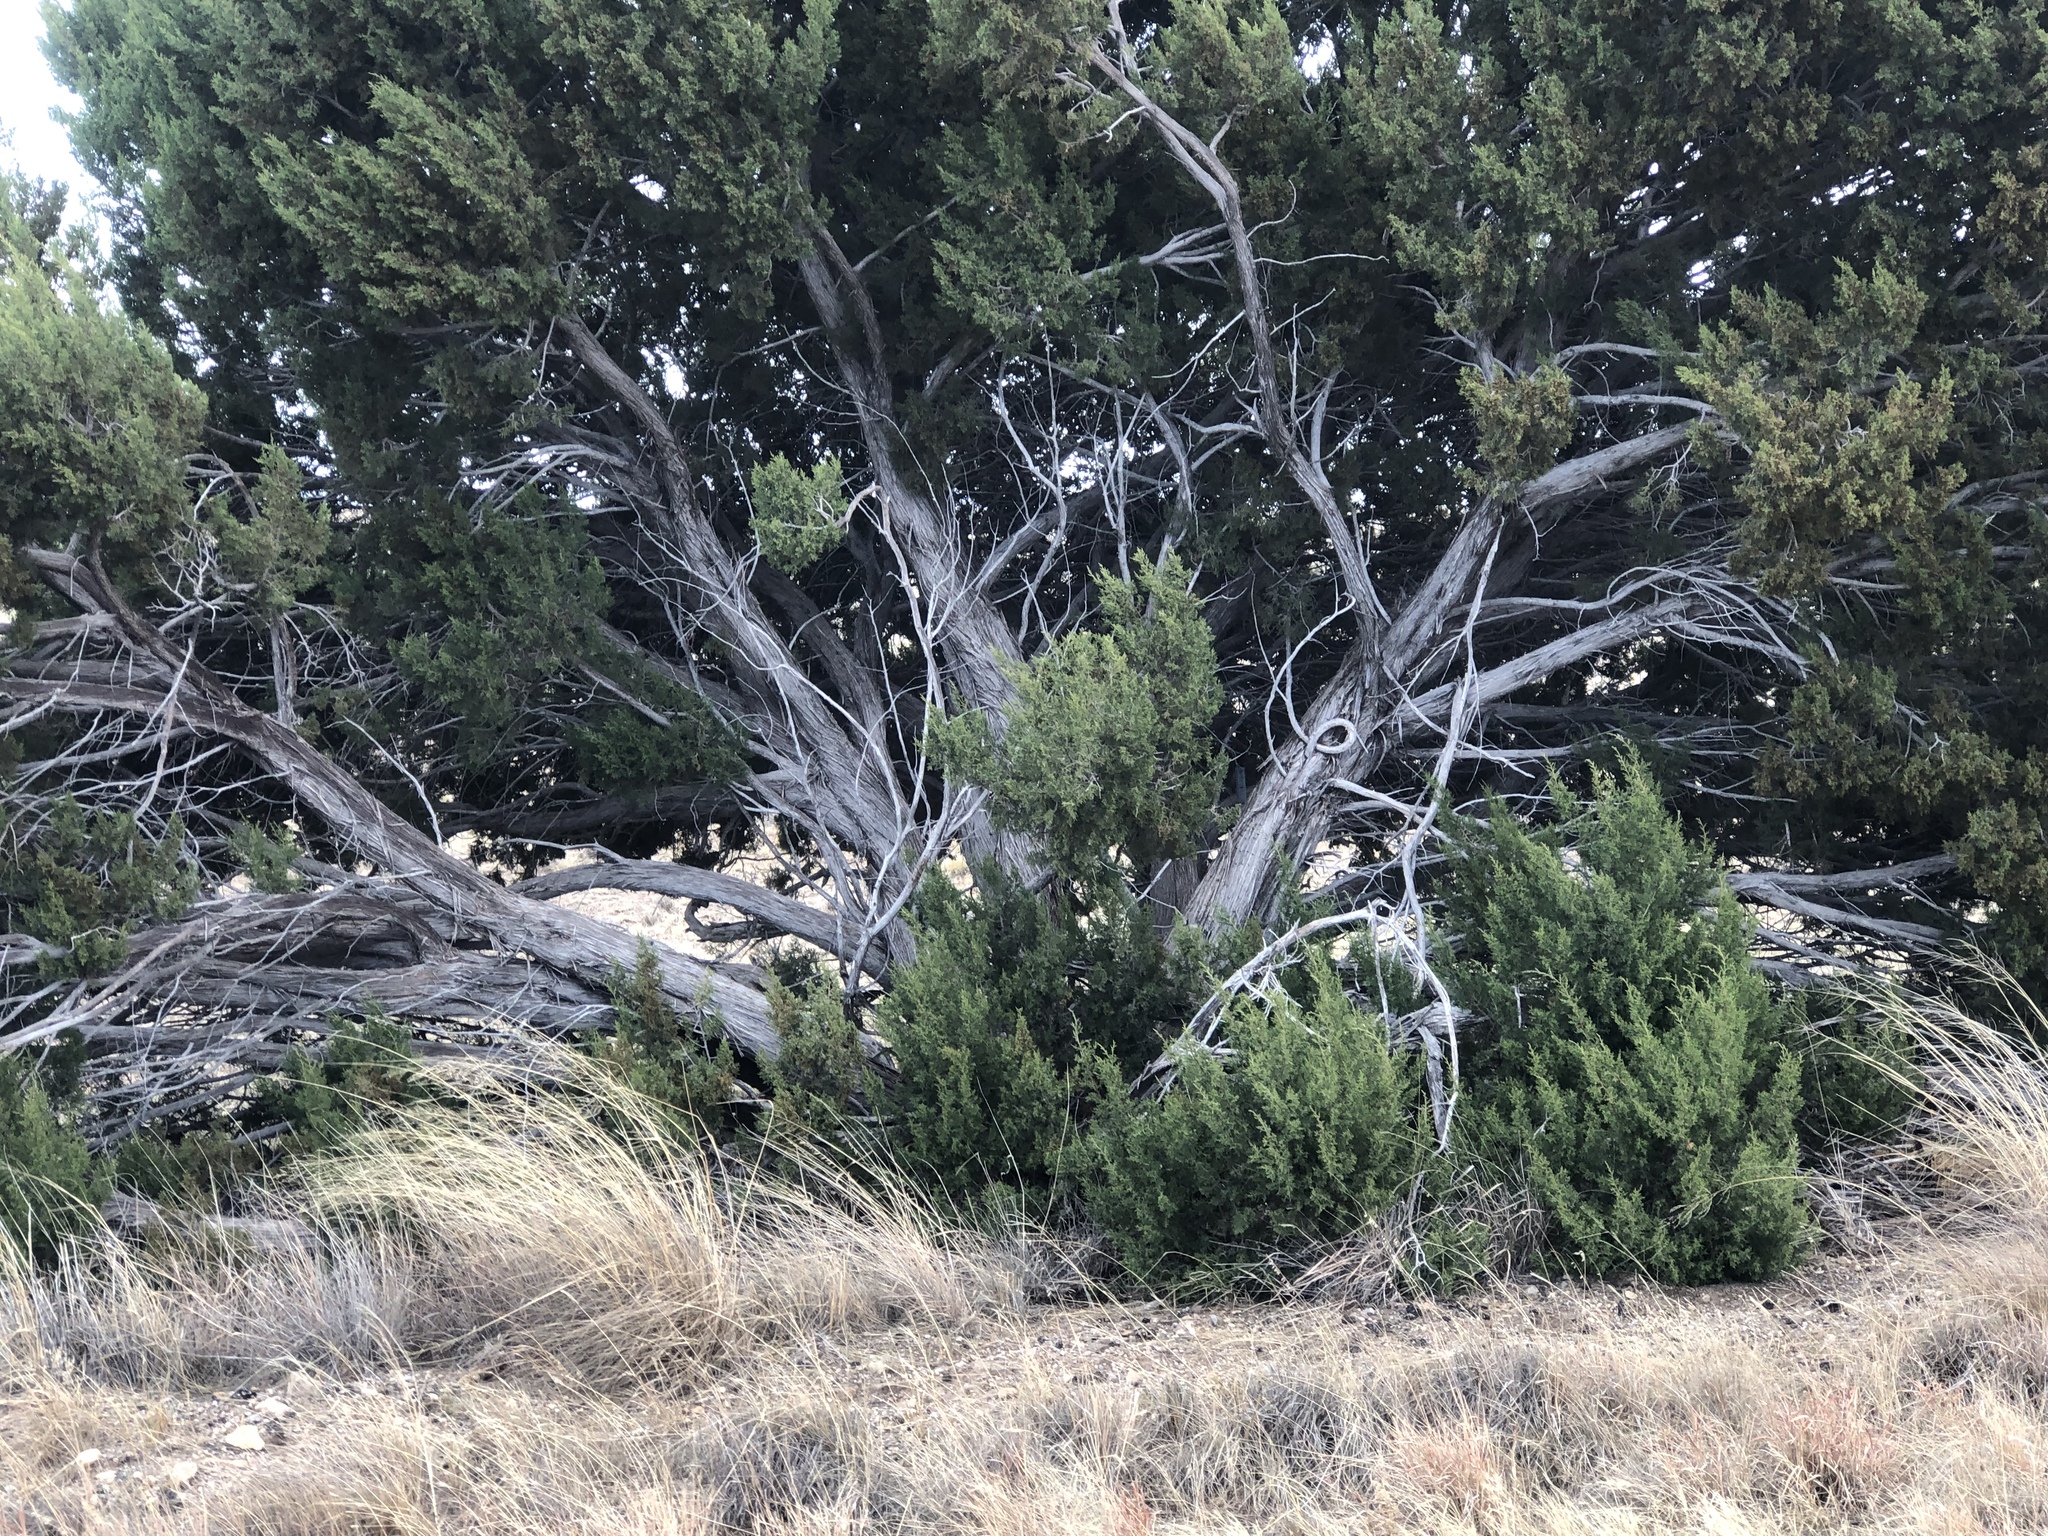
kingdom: Plantae
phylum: Tracheophyta
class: Pinopsida
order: Pinales
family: Cupressaceae
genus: Juniperus
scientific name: Juniperus monosperma
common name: One-seed juniper
